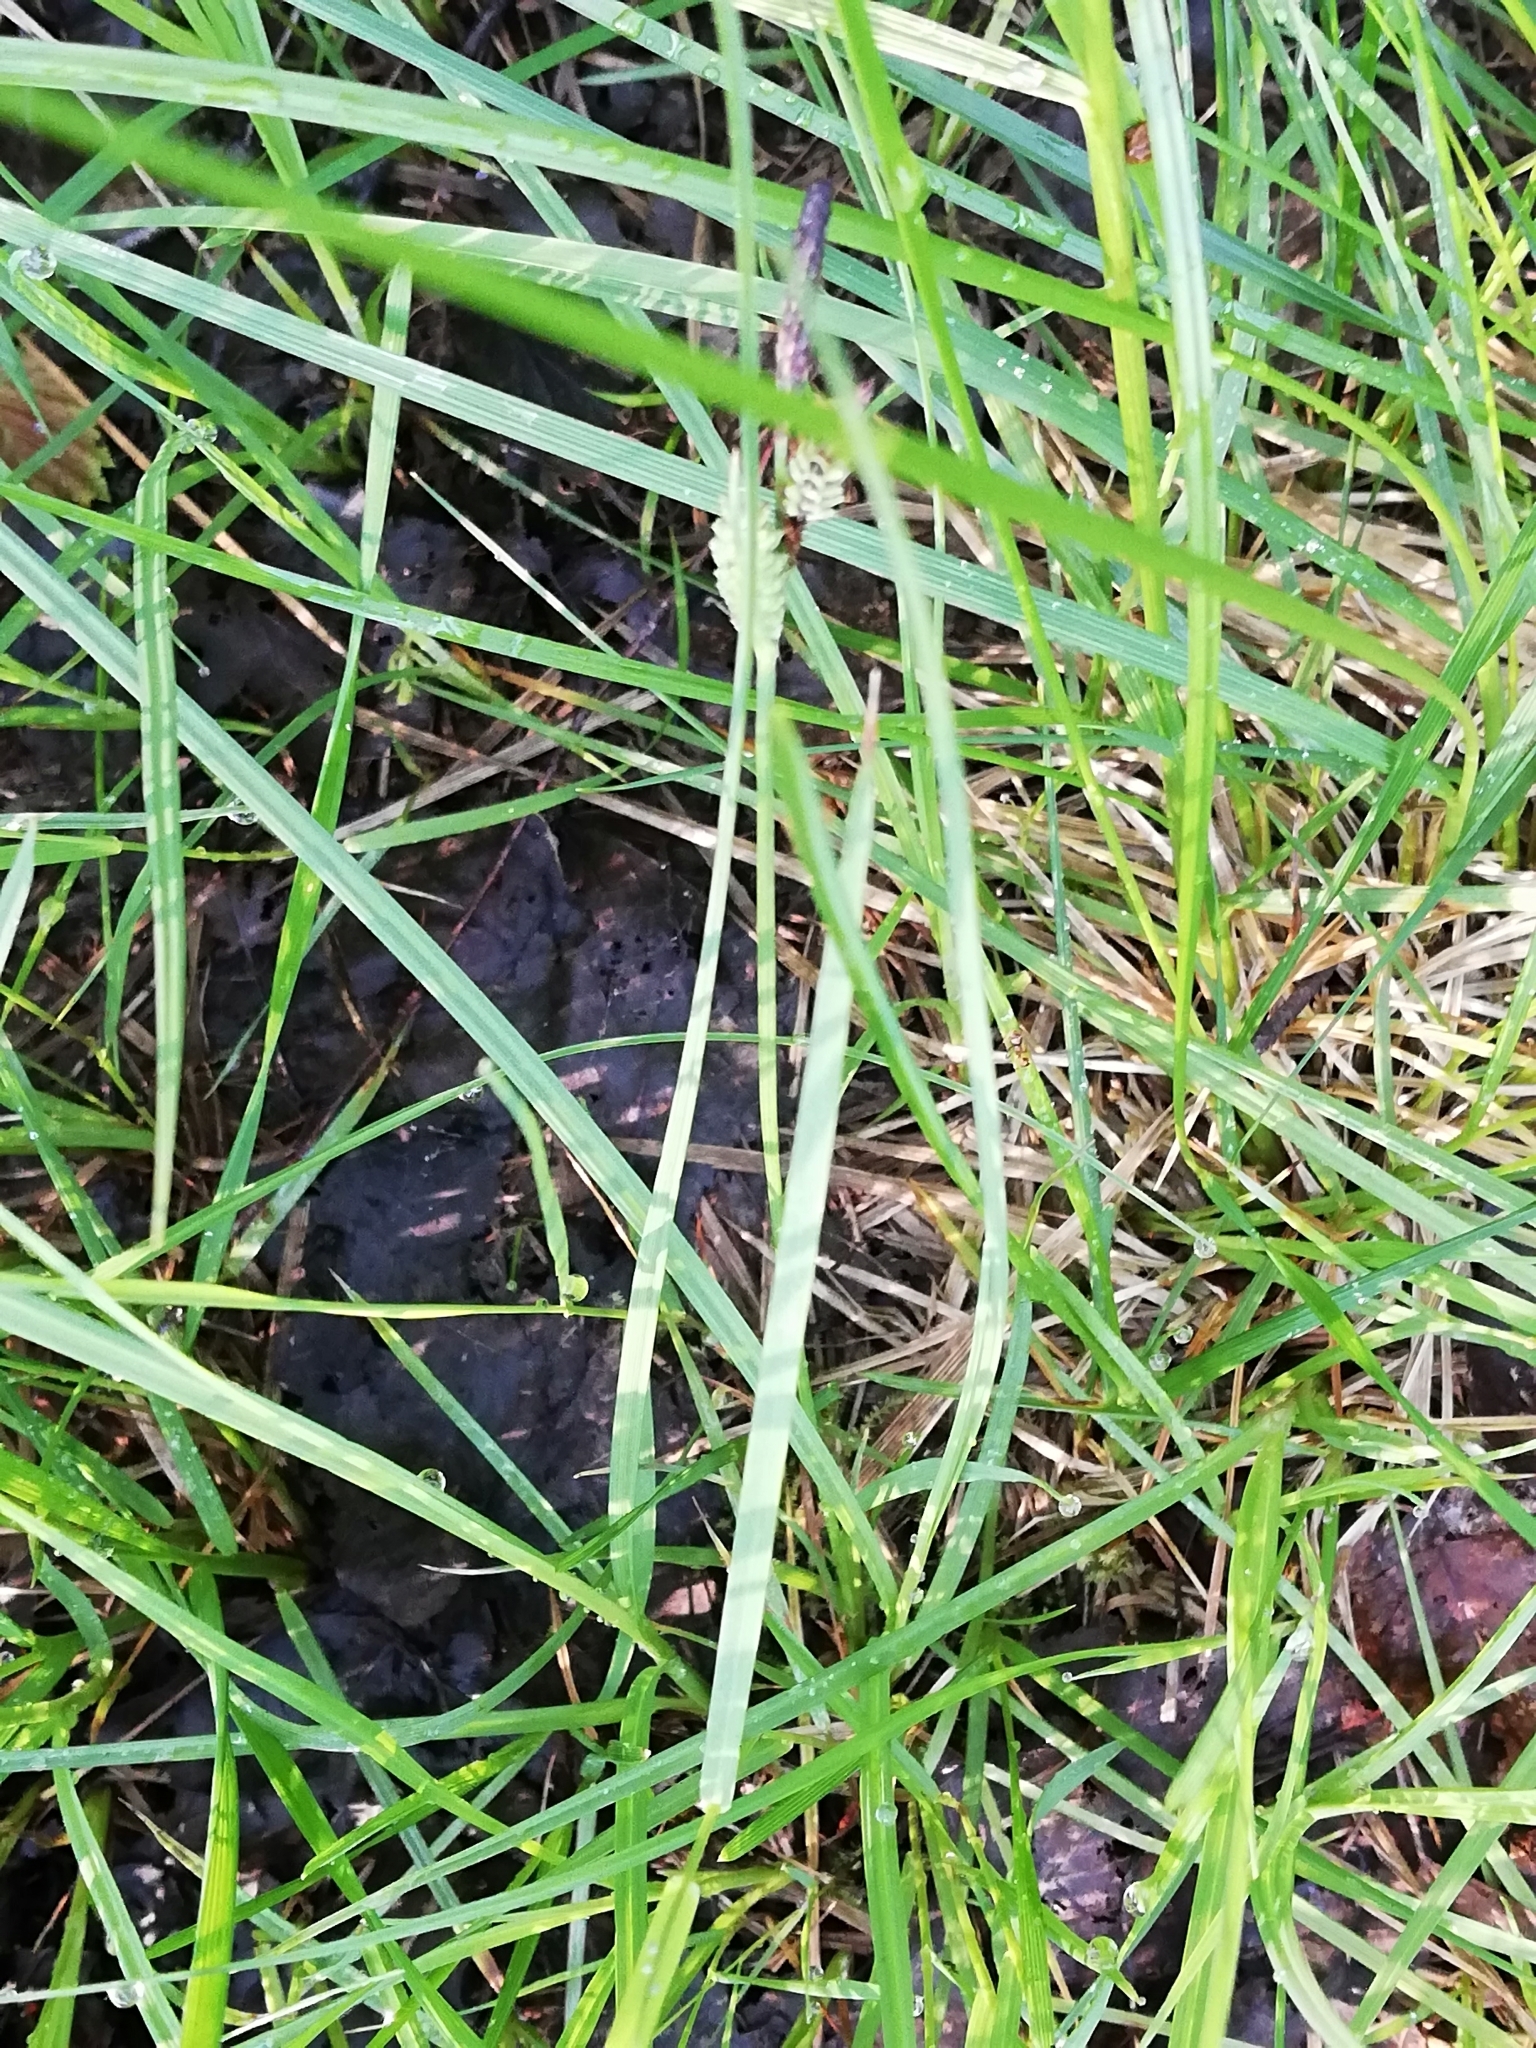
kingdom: Plantae
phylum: Tracheophyta
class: Liliopsida
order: Poales
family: Cyperaceae
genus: Carex
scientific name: Carex pallescens
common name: Pale sedge
